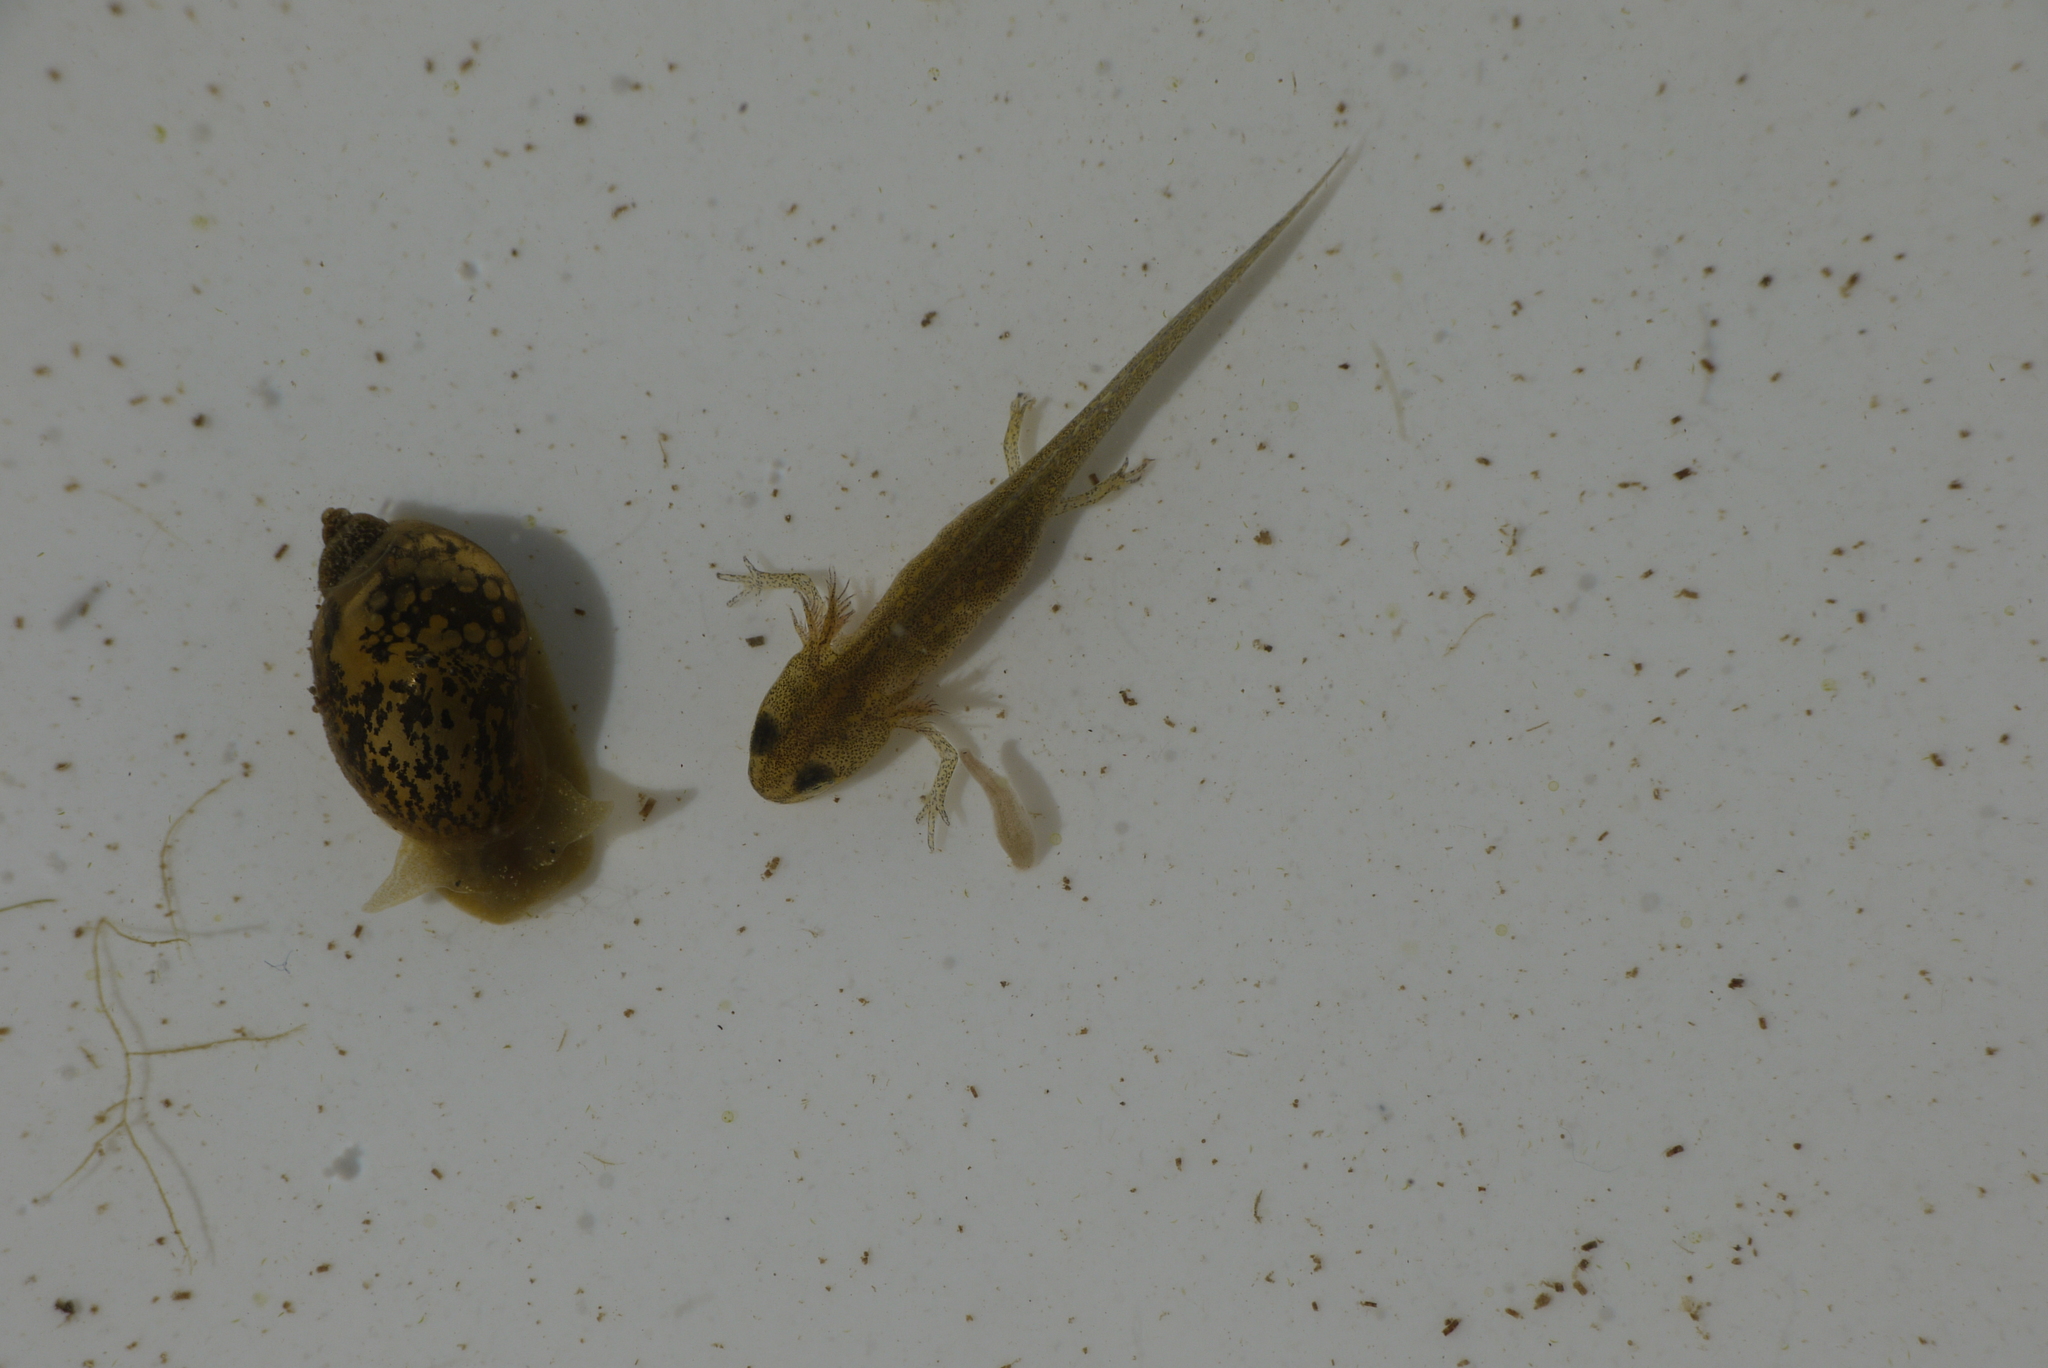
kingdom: Animalia
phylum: Chordata
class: Amphibia
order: Caudata
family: Salamandridae
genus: Lissotriton
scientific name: Lissotriton vulgaris
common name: Smooth newt
